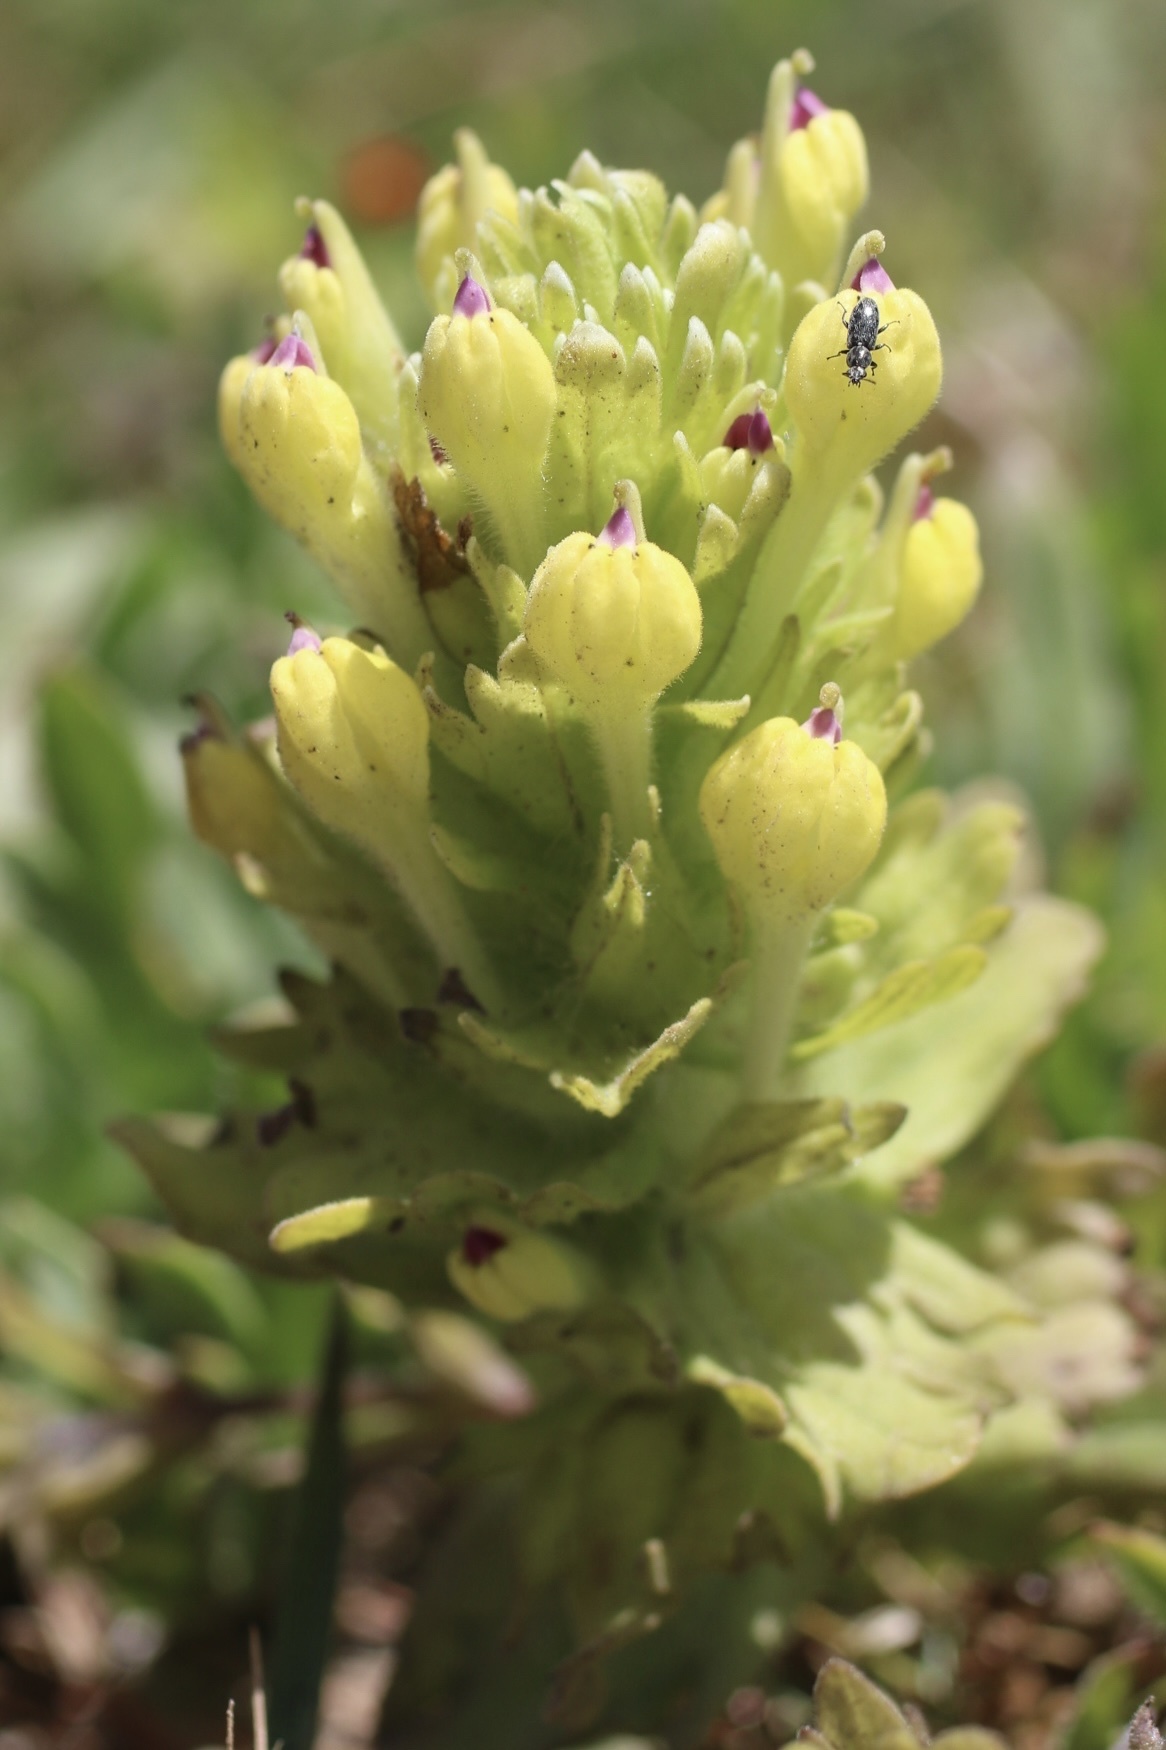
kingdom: Plantae
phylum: Tracheophyta
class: Magnoliopsida
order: Lamiales
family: Orobanchaceae
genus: Castilleja
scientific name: Castilleja ambigua
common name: Johnny-nip
